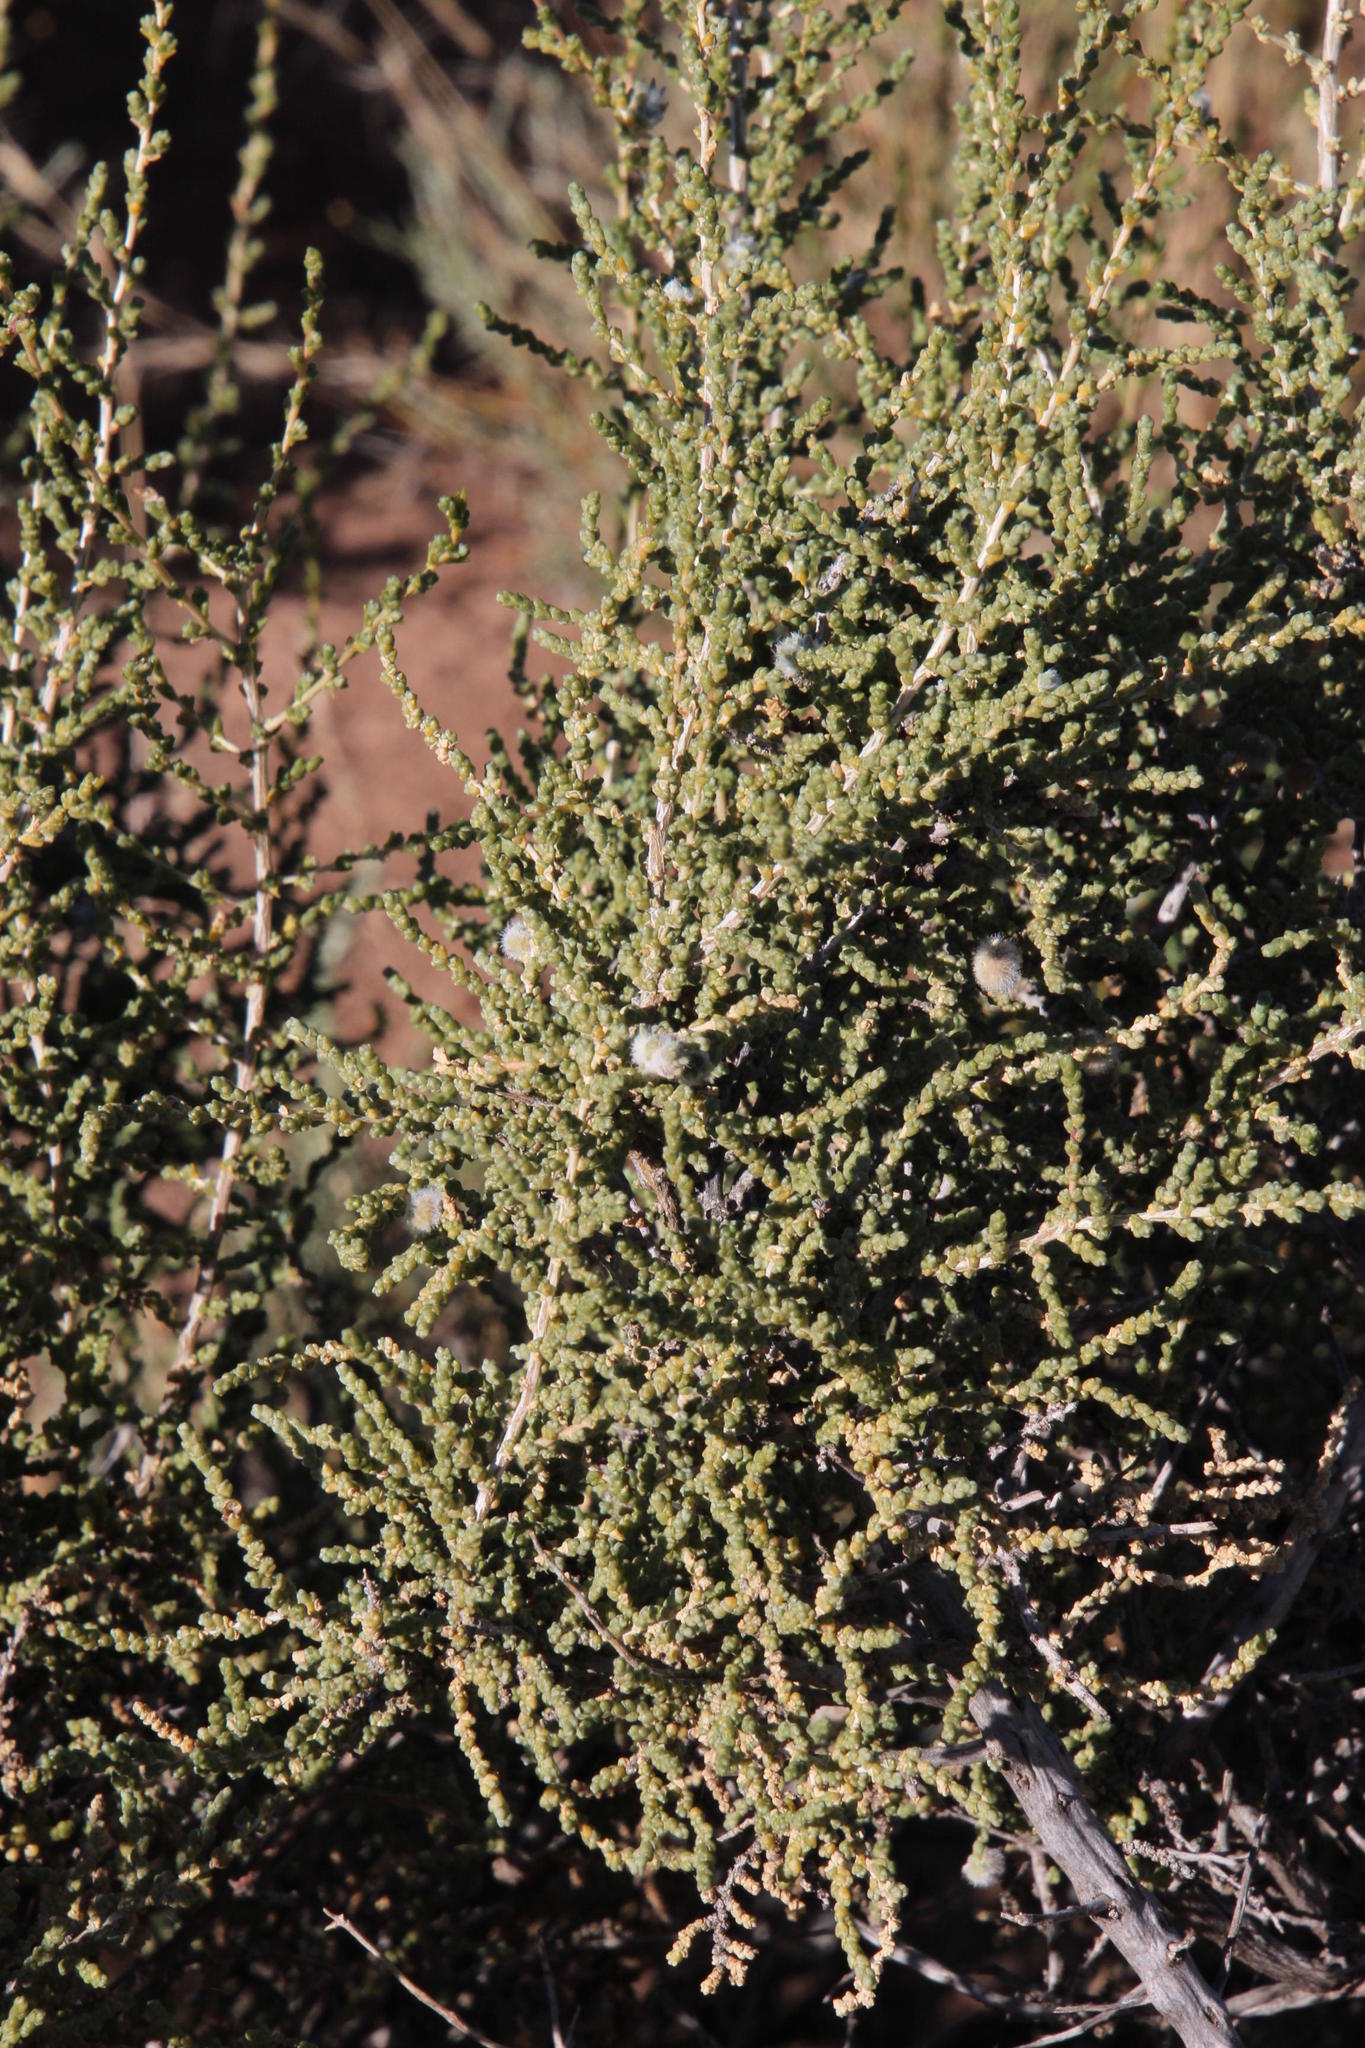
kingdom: Plantae
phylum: Tracheophyta
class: Magnoliopsida
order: Caryophyllales
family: Amaranthaceae
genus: Caroxylon
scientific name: Caroxylon aphyllum
